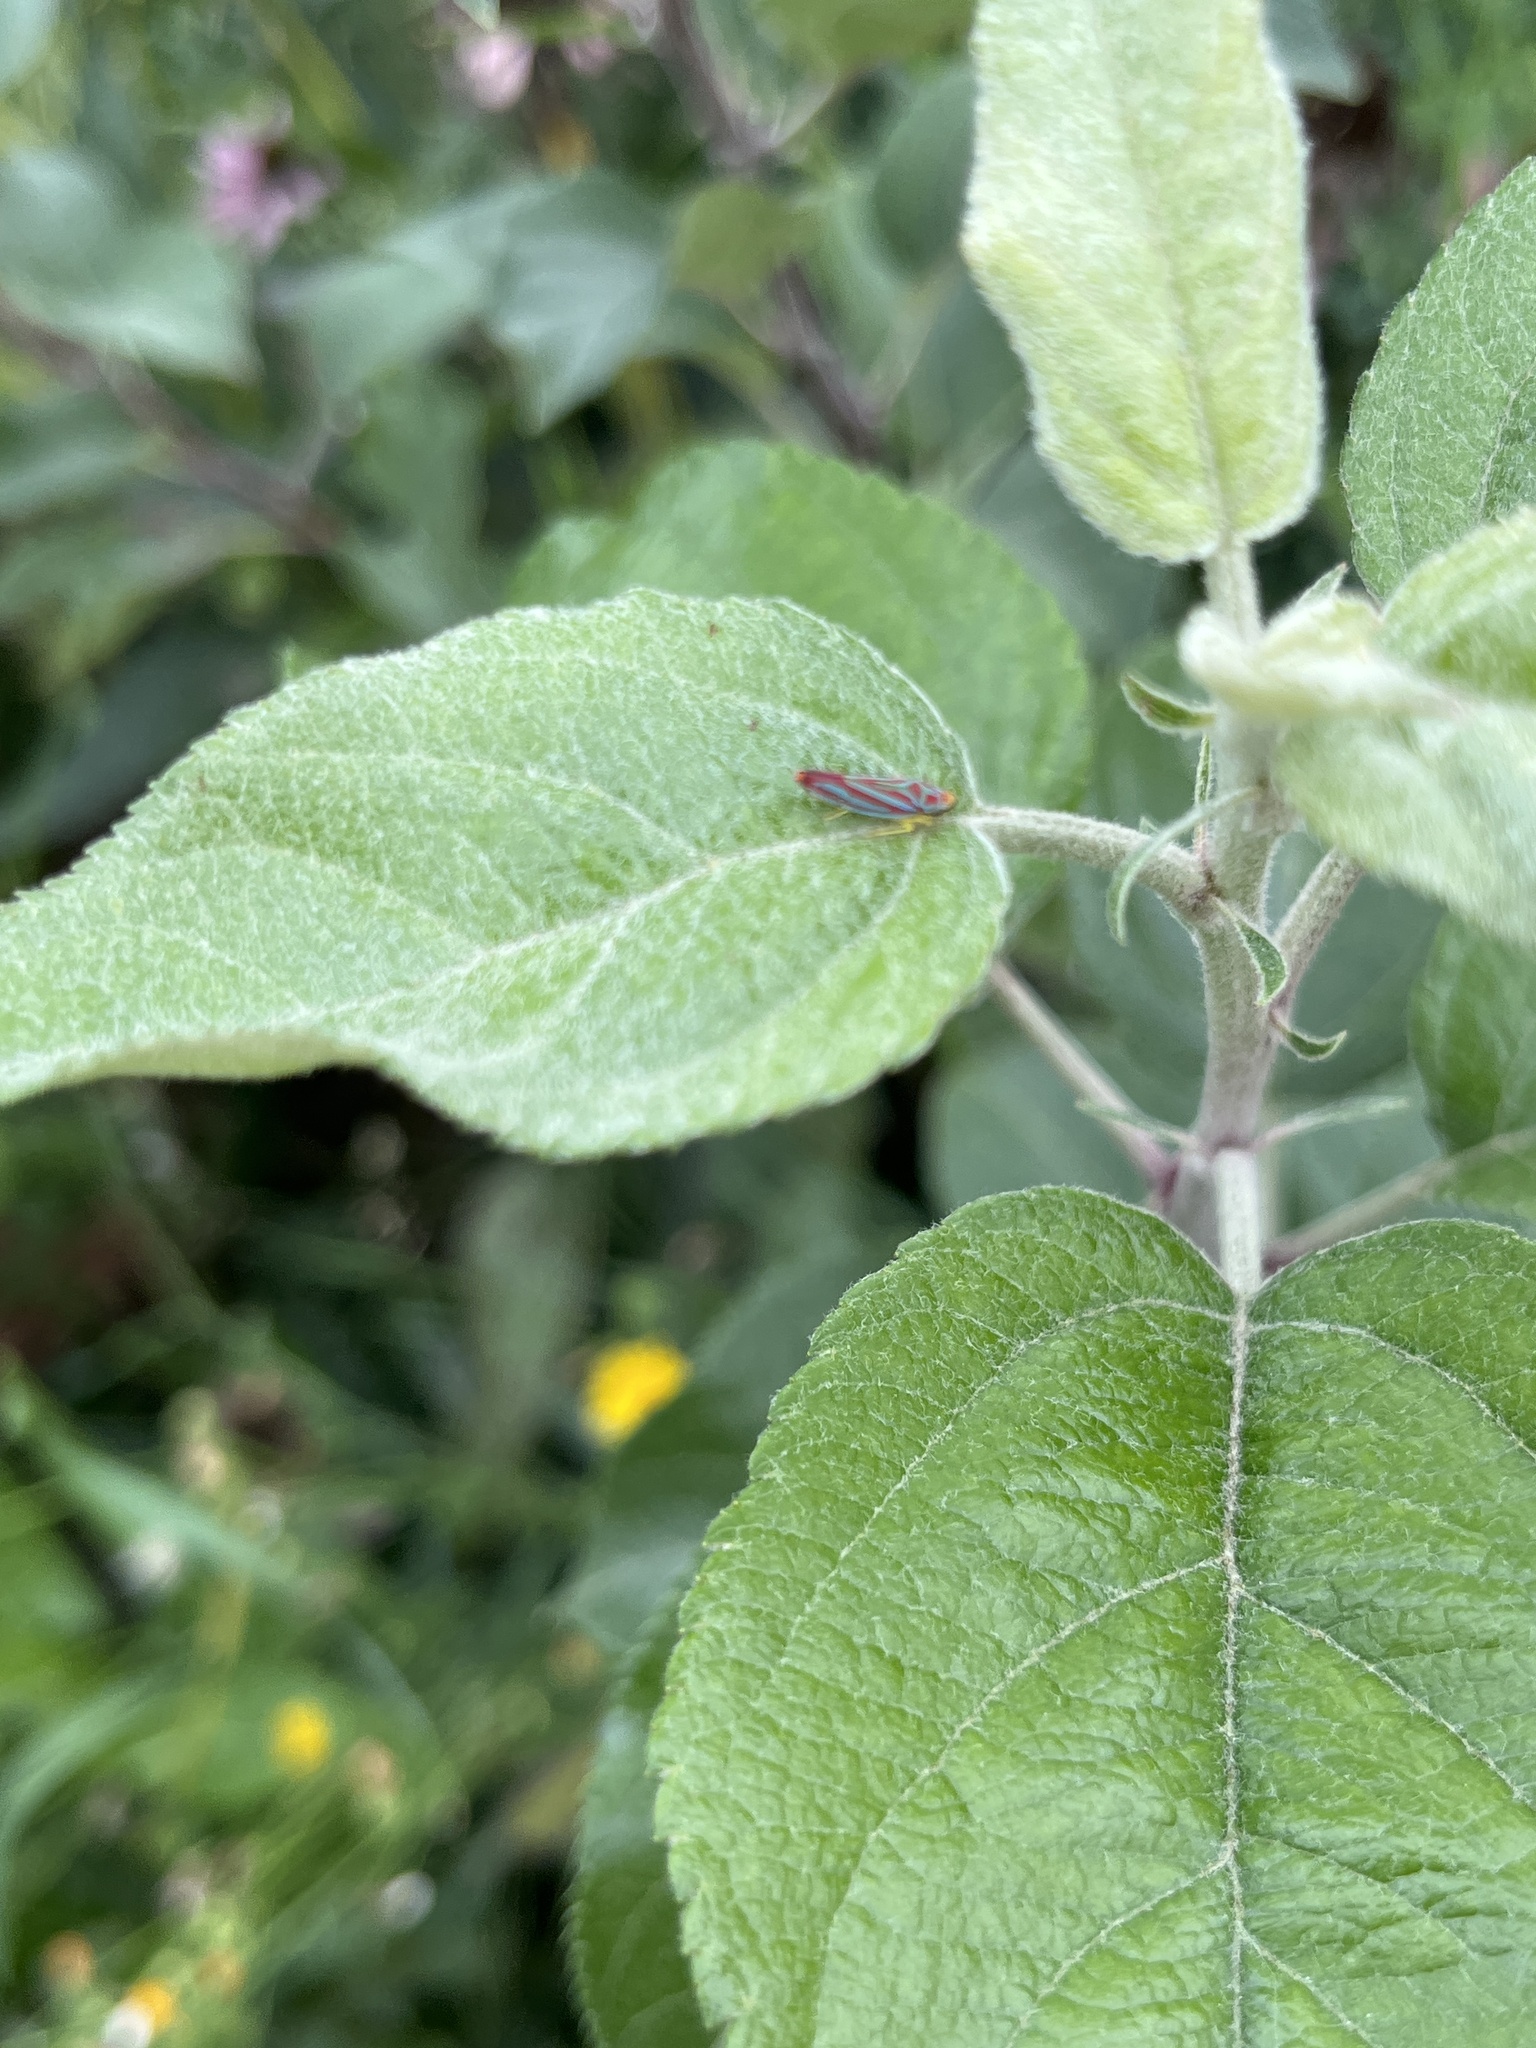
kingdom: Animalia
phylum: Arthropoda
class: Insecta
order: Hemiptera
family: Cicadellidae
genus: Graphocephala
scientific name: Graphocephala coccinea
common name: Candy-striped leafhopper
